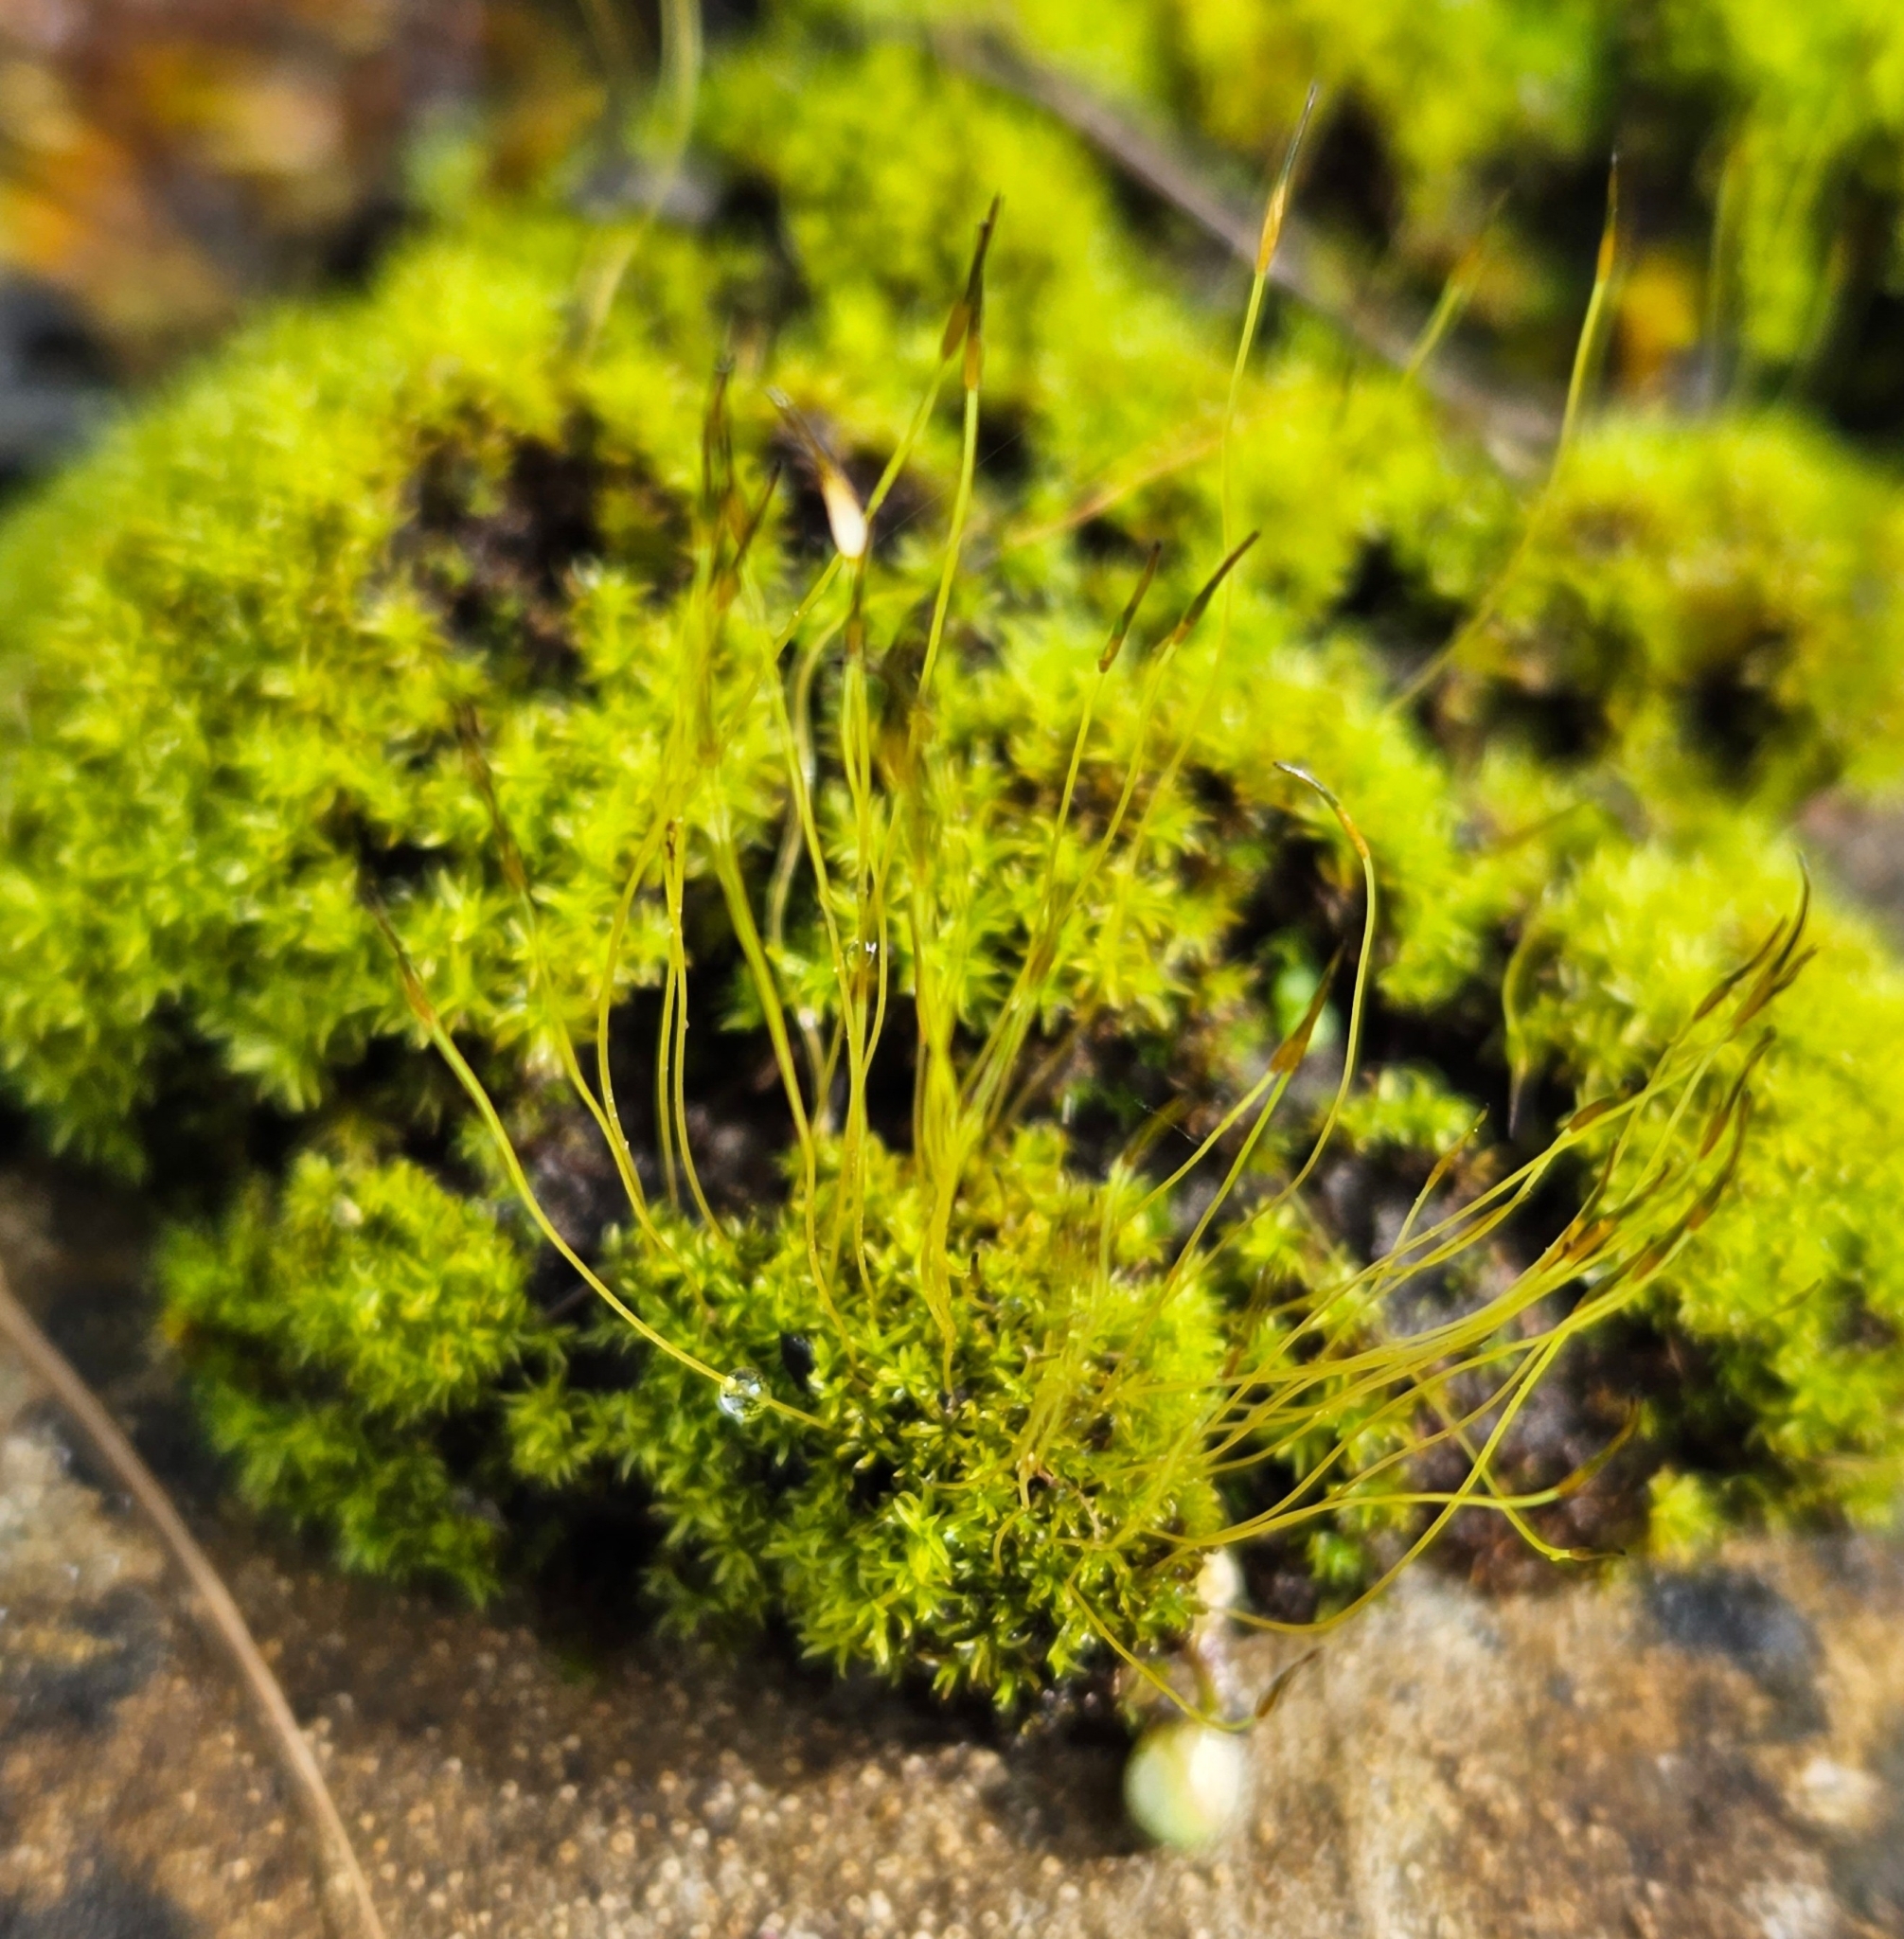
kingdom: Plantae
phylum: Bryophyta
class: Bryopsida
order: Pottiales
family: Pottiaceae
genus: Streblotrichum
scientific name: Streblotrichum convolutum
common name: Lesser bird's-claw beard-moss
